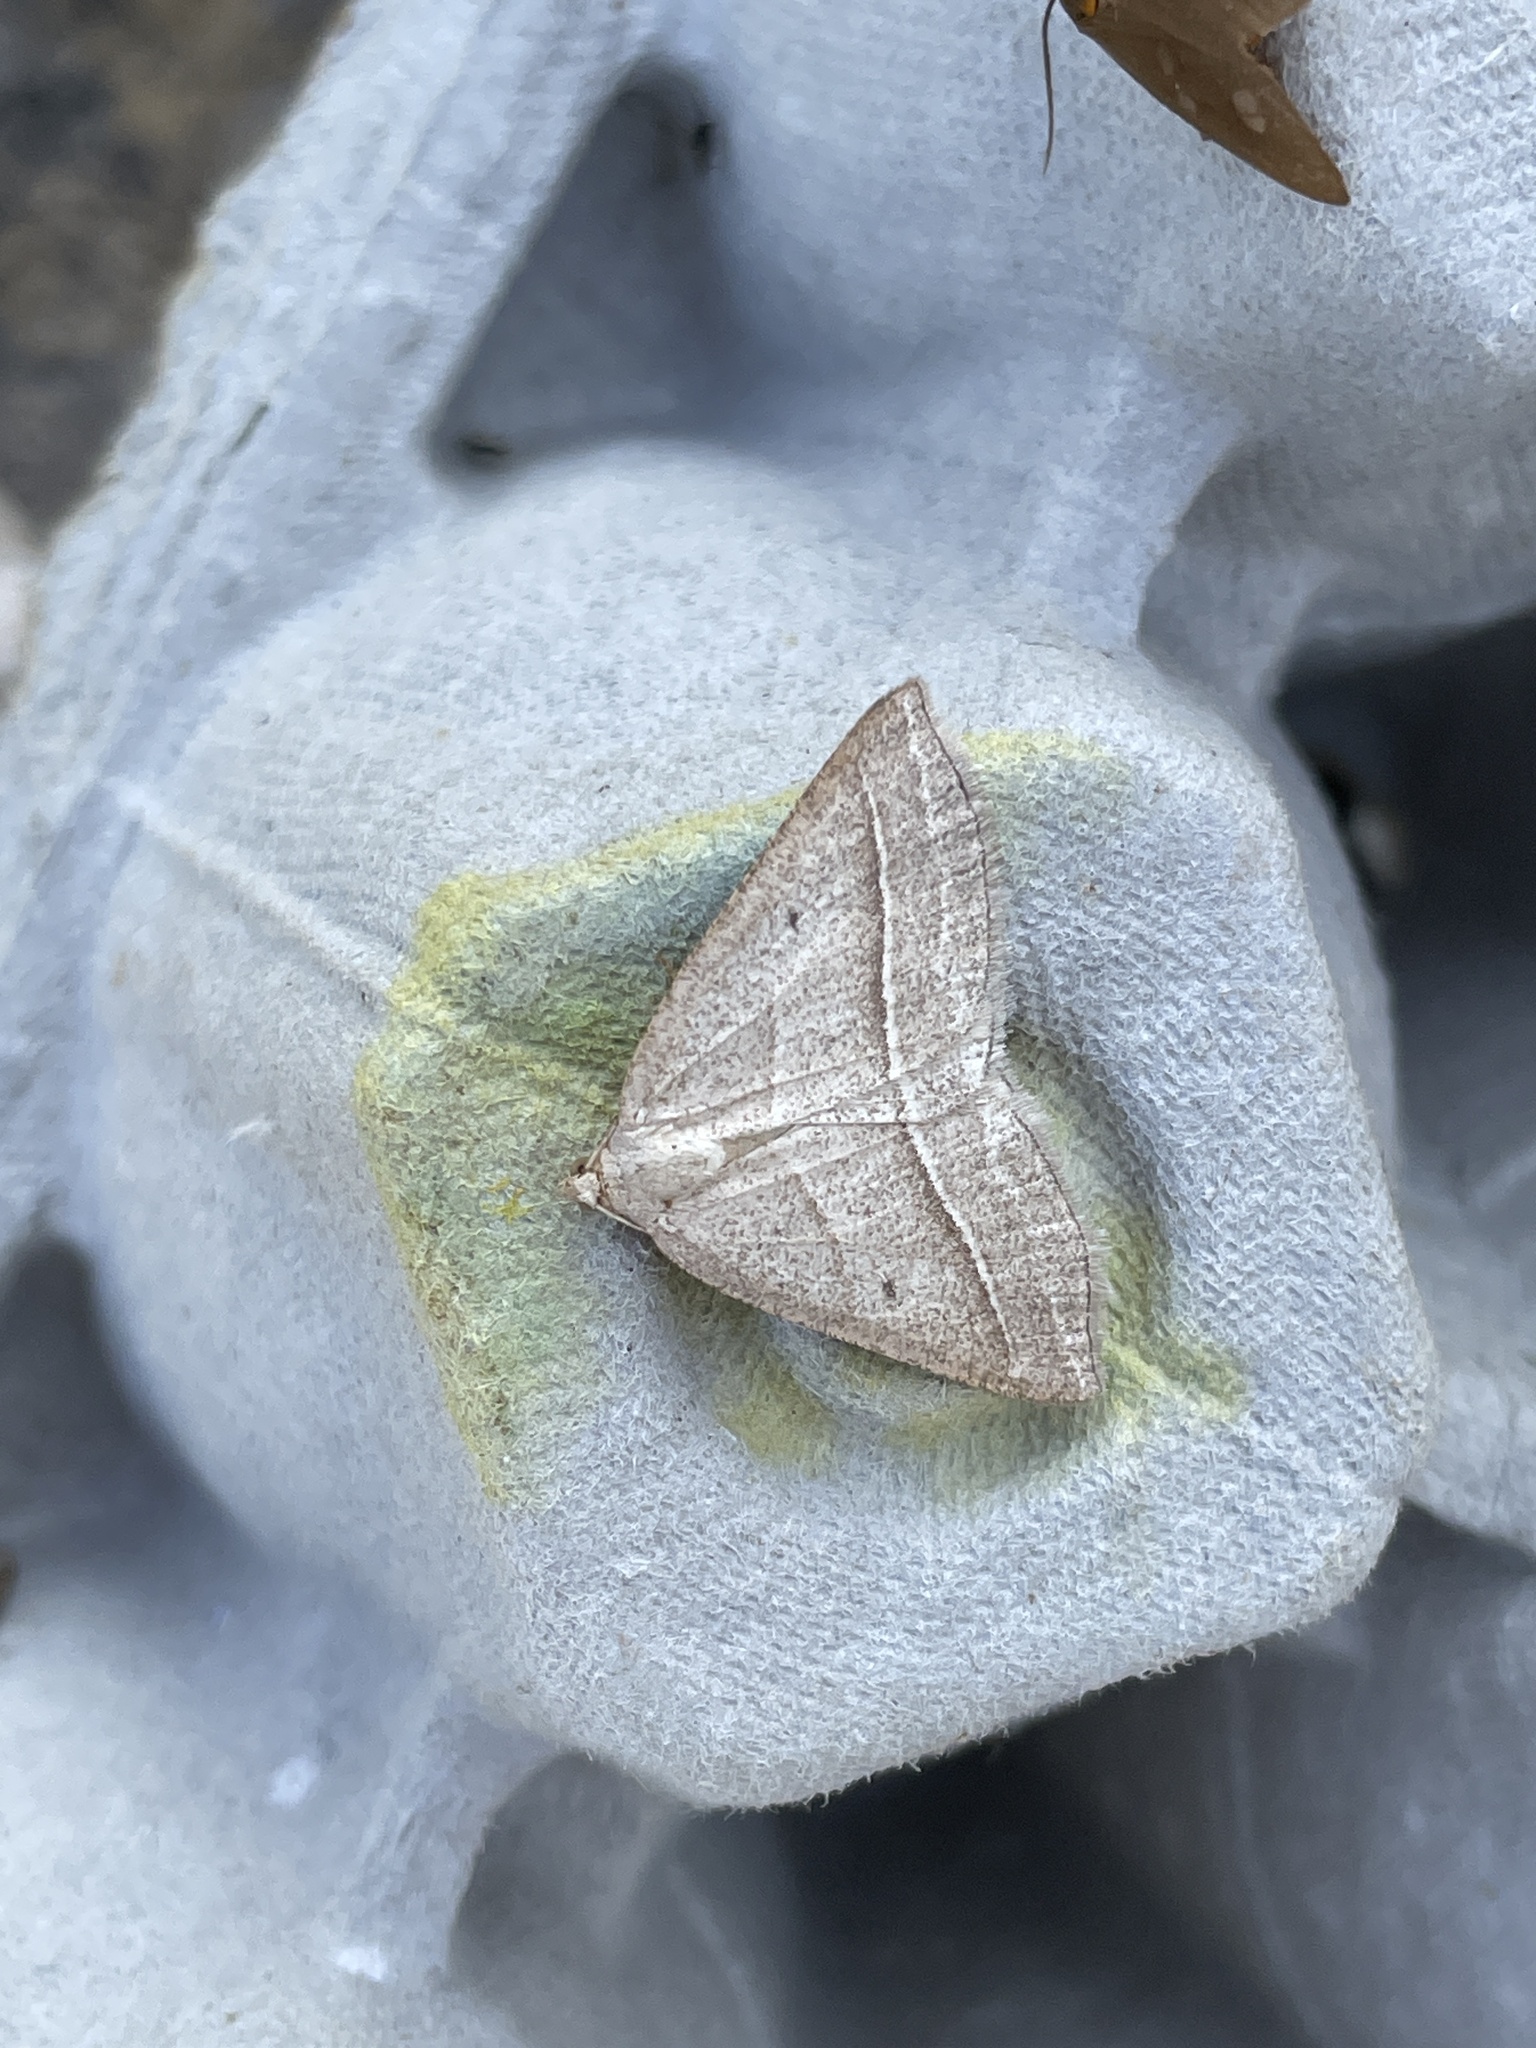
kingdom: Animalia
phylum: Arthropoda
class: Insecta
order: Lepidoptera
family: Pterophoridae
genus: Pterophorus
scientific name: Pterophorus Petrophora chlorosata
